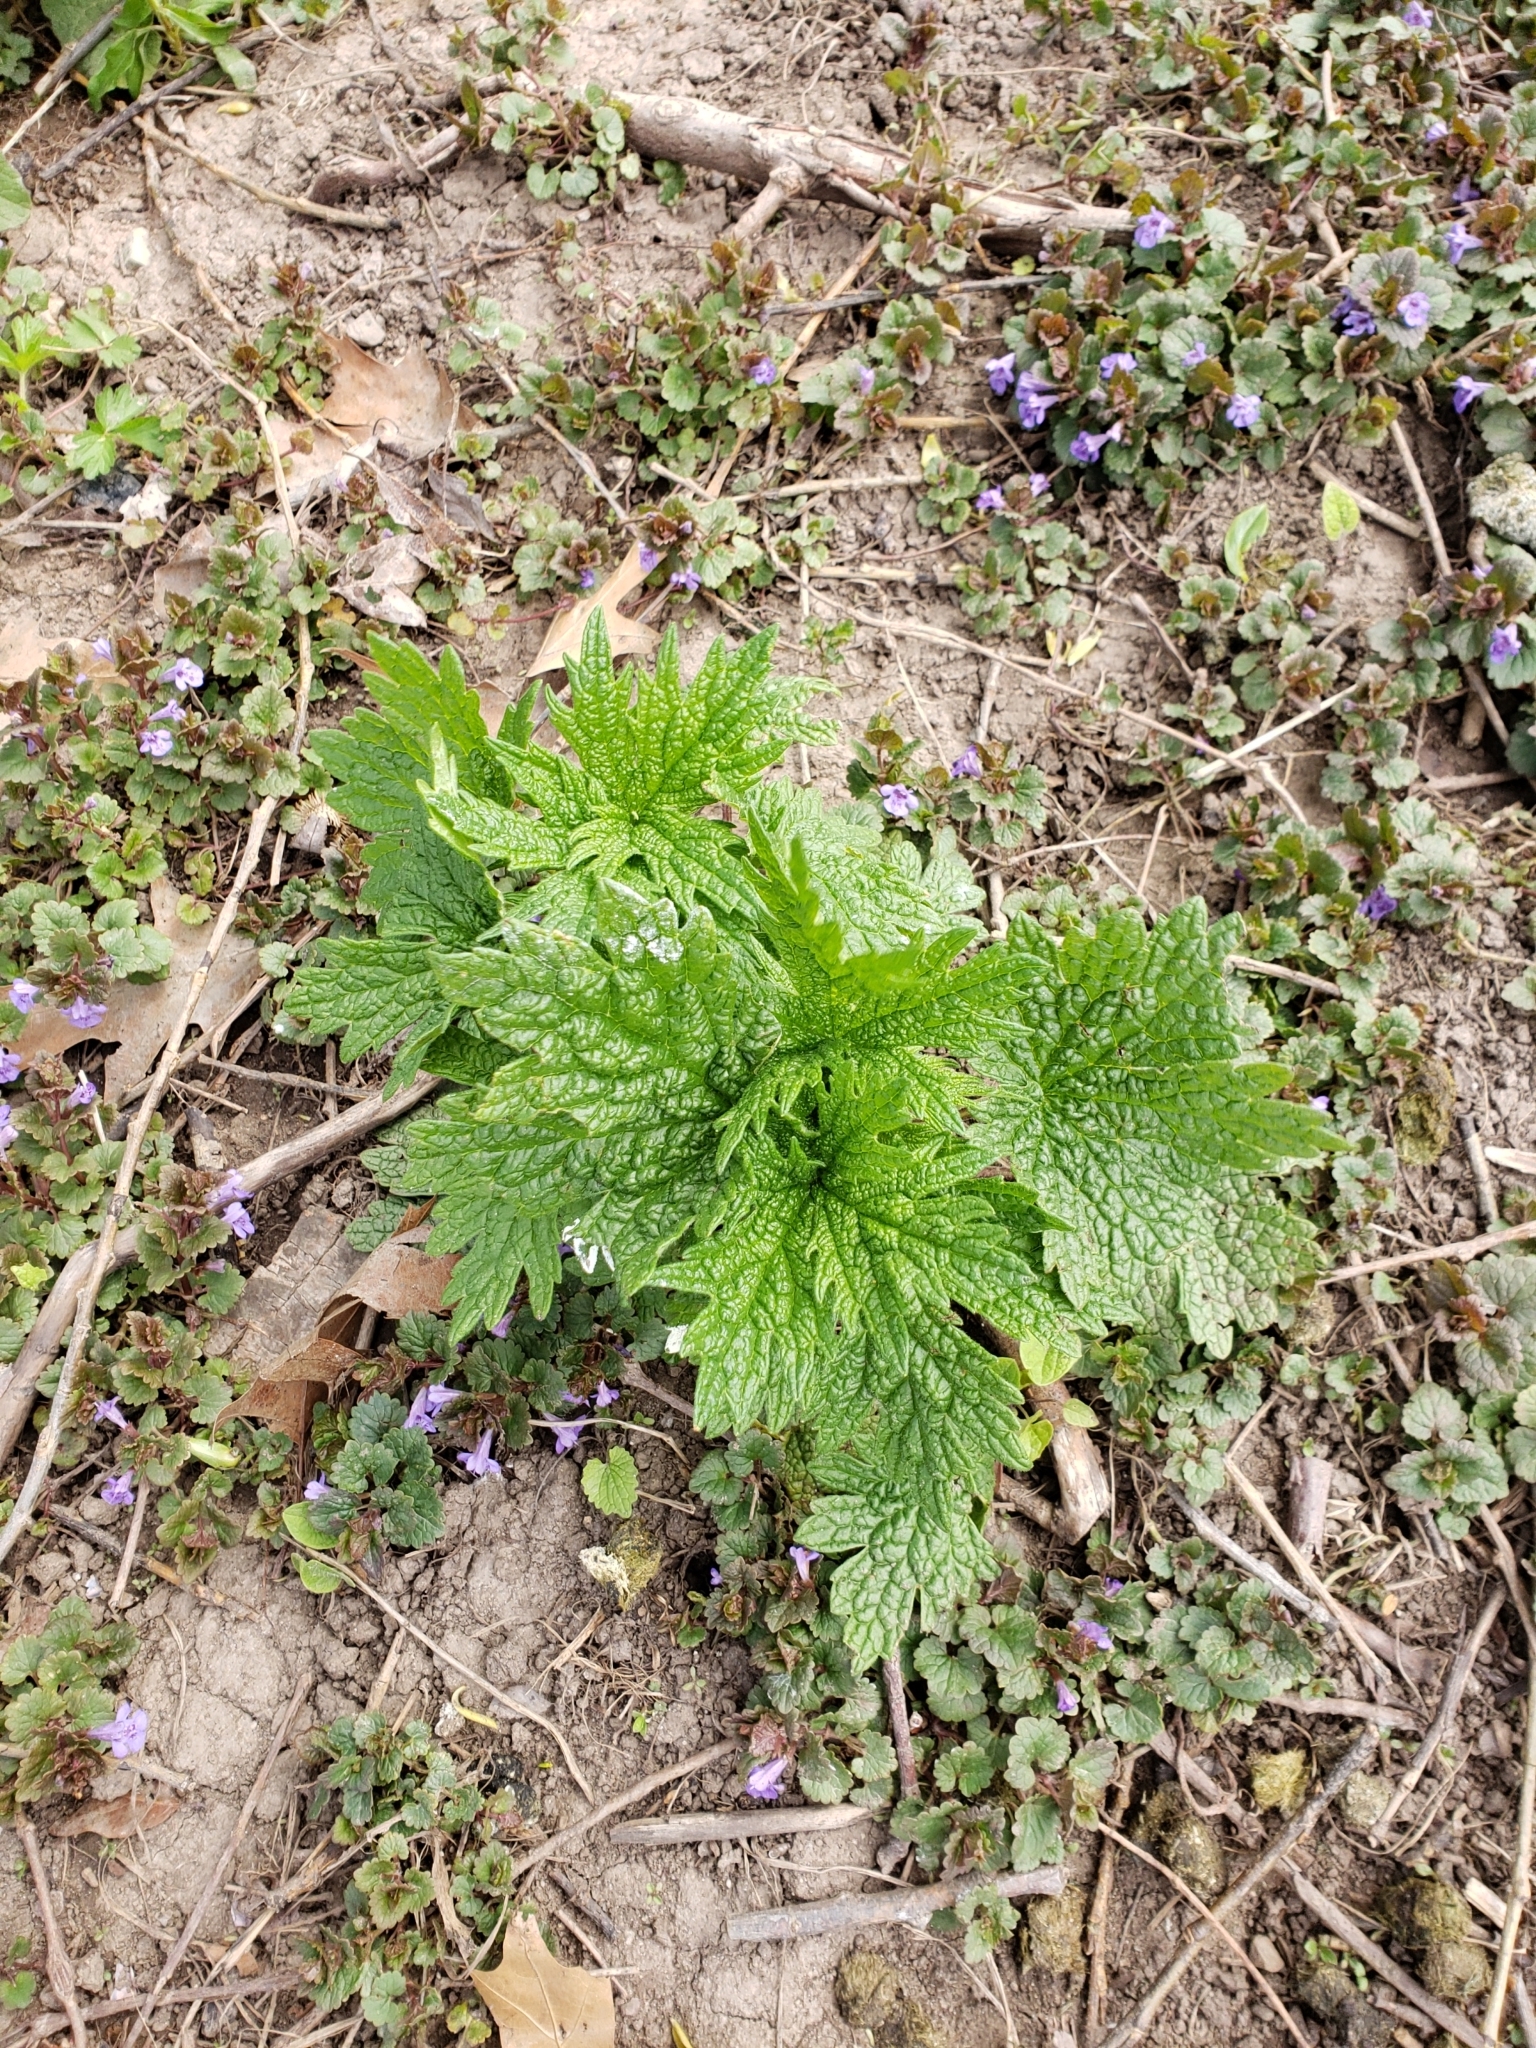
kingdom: Plantae
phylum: Tracheophyta
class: Magnoliopsida
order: Lamiales
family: Lamiaceae
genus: Leonurus
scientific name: Leonurus cardiaca
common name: Motherwort
